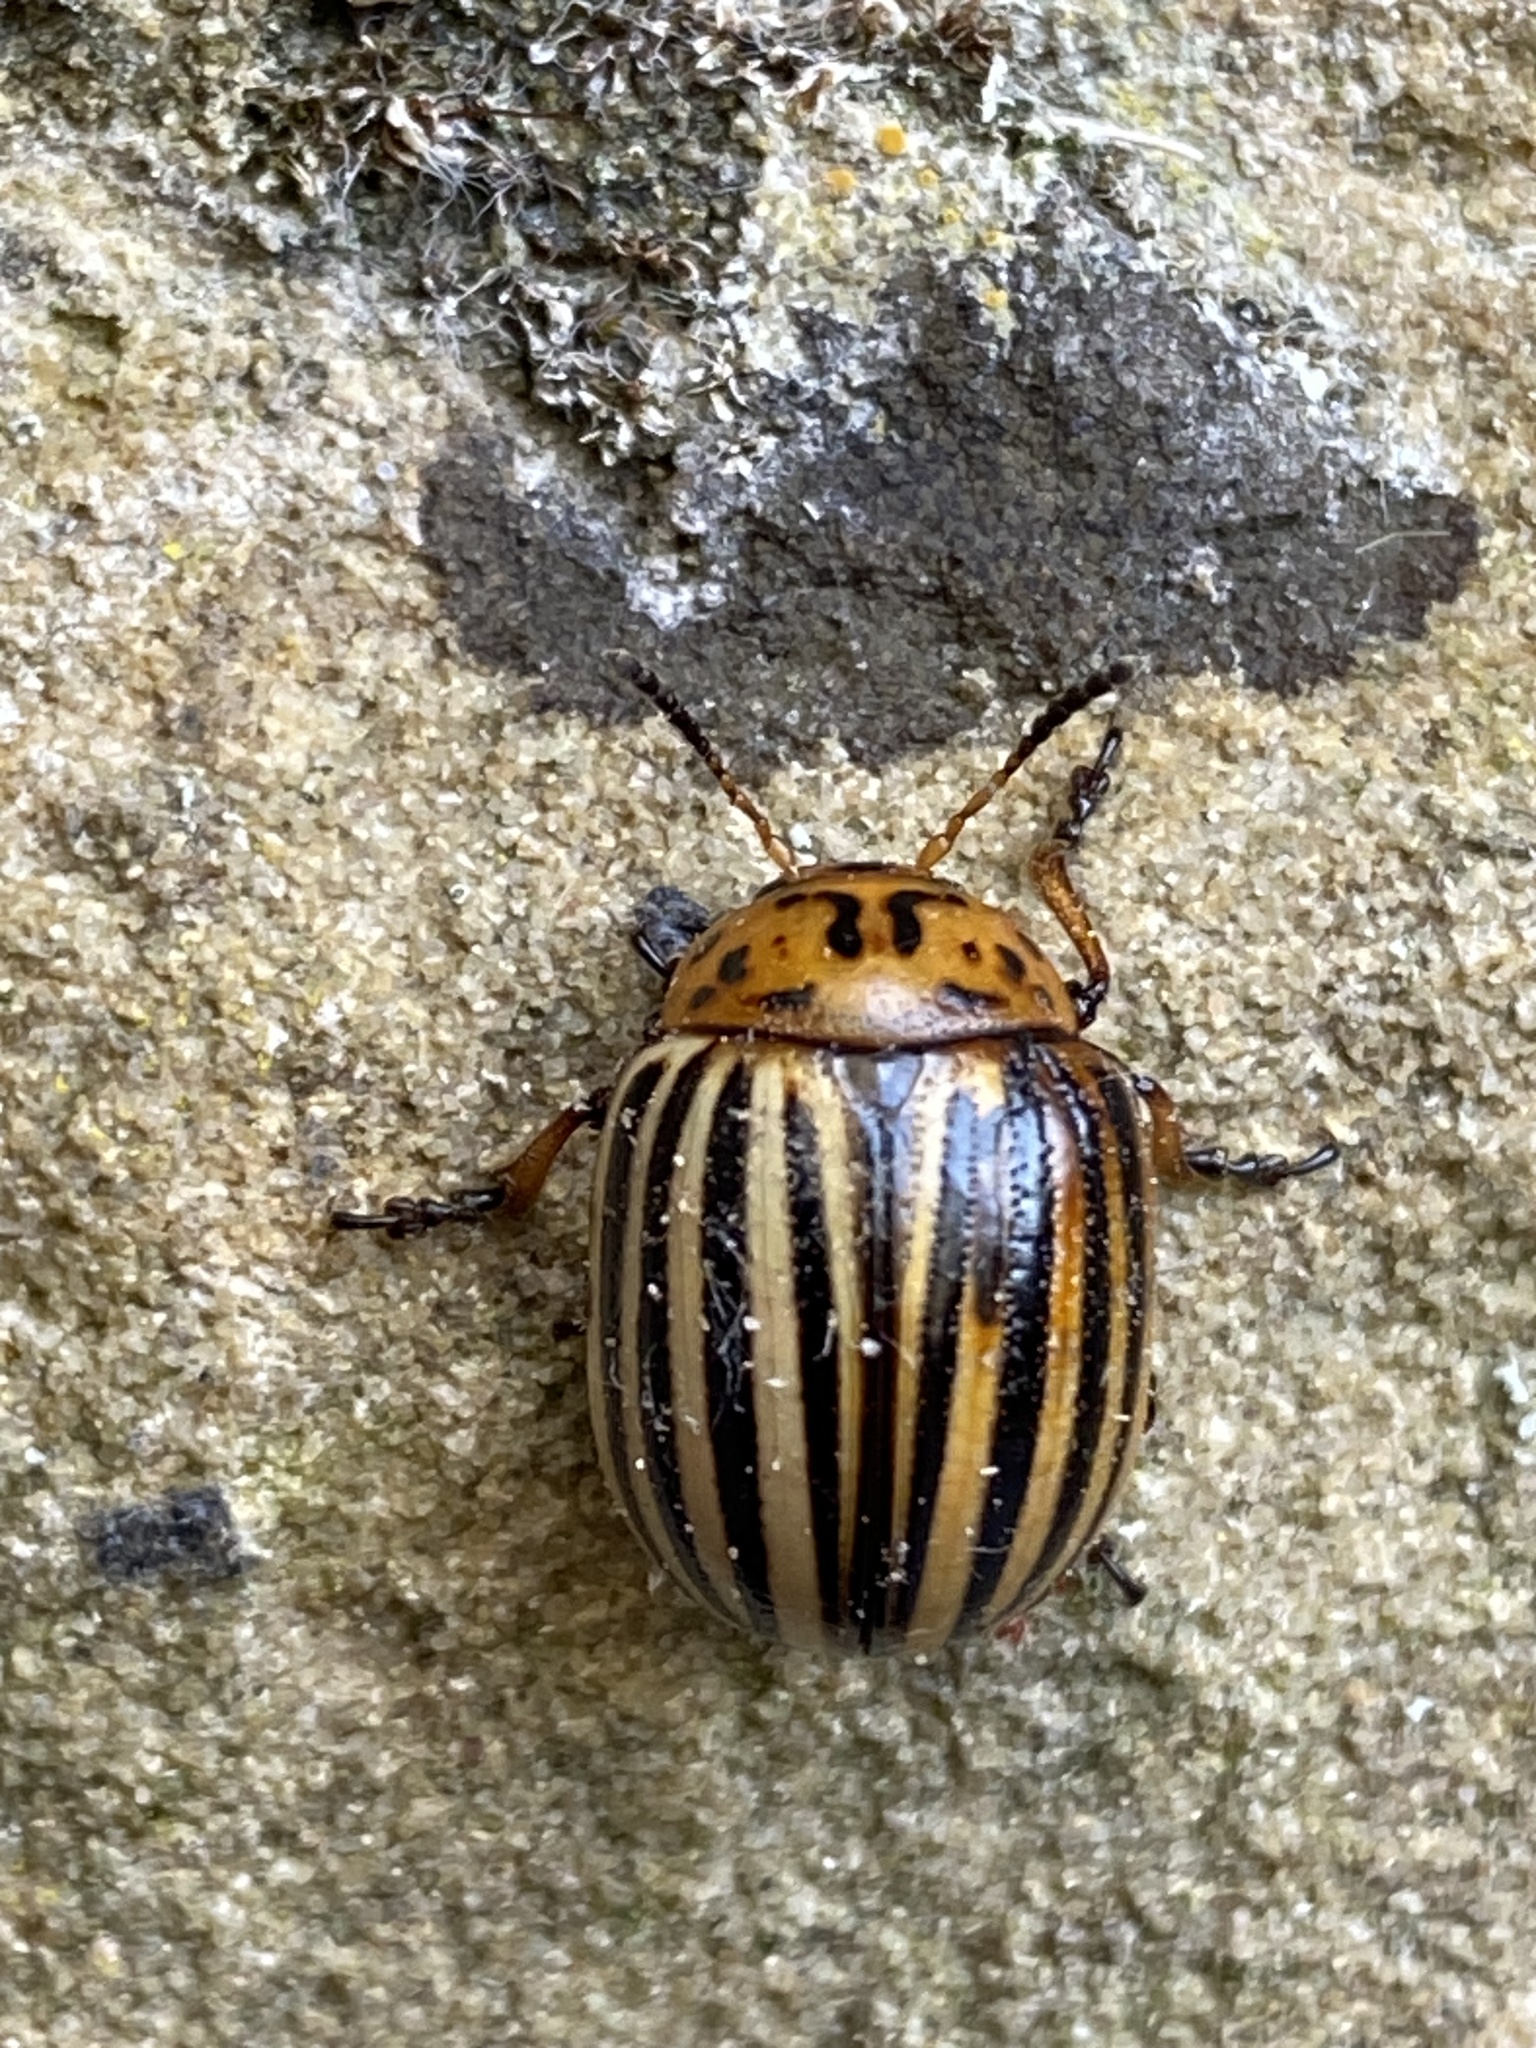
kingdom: Animalia
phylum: Arthropoda
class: Insecta
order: Coleoptera
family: Chrysomelidae
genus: Leptinotarsa
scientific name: Leptinotarsa decemlineata
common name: Colorado potato beetle
